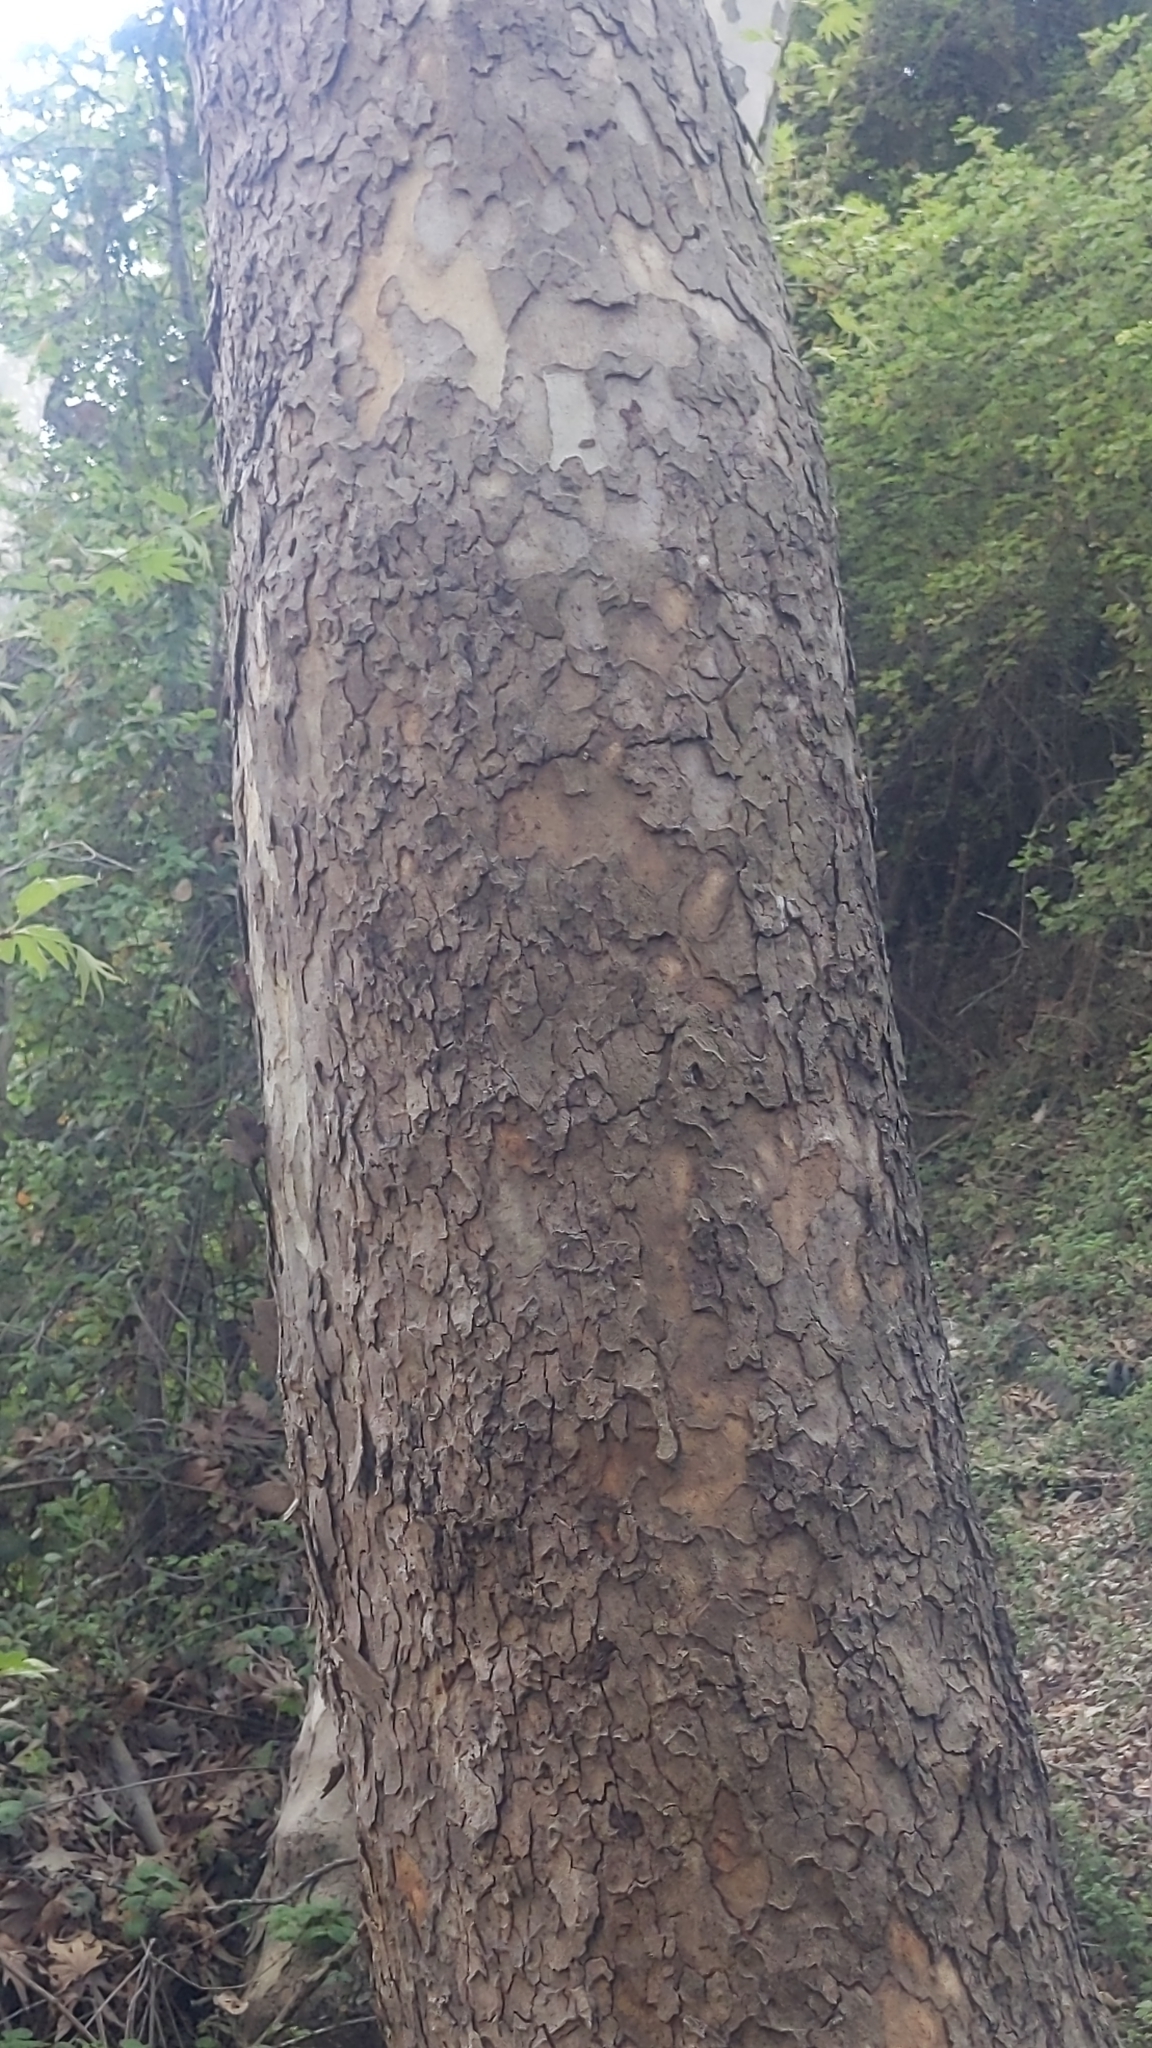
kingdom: Plantae
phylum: Tracheophyta
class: Magnoliopsida
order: Proteales
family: Platanaceae
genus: Platanus
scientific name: Platanus orientalis
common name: Oriental plane
